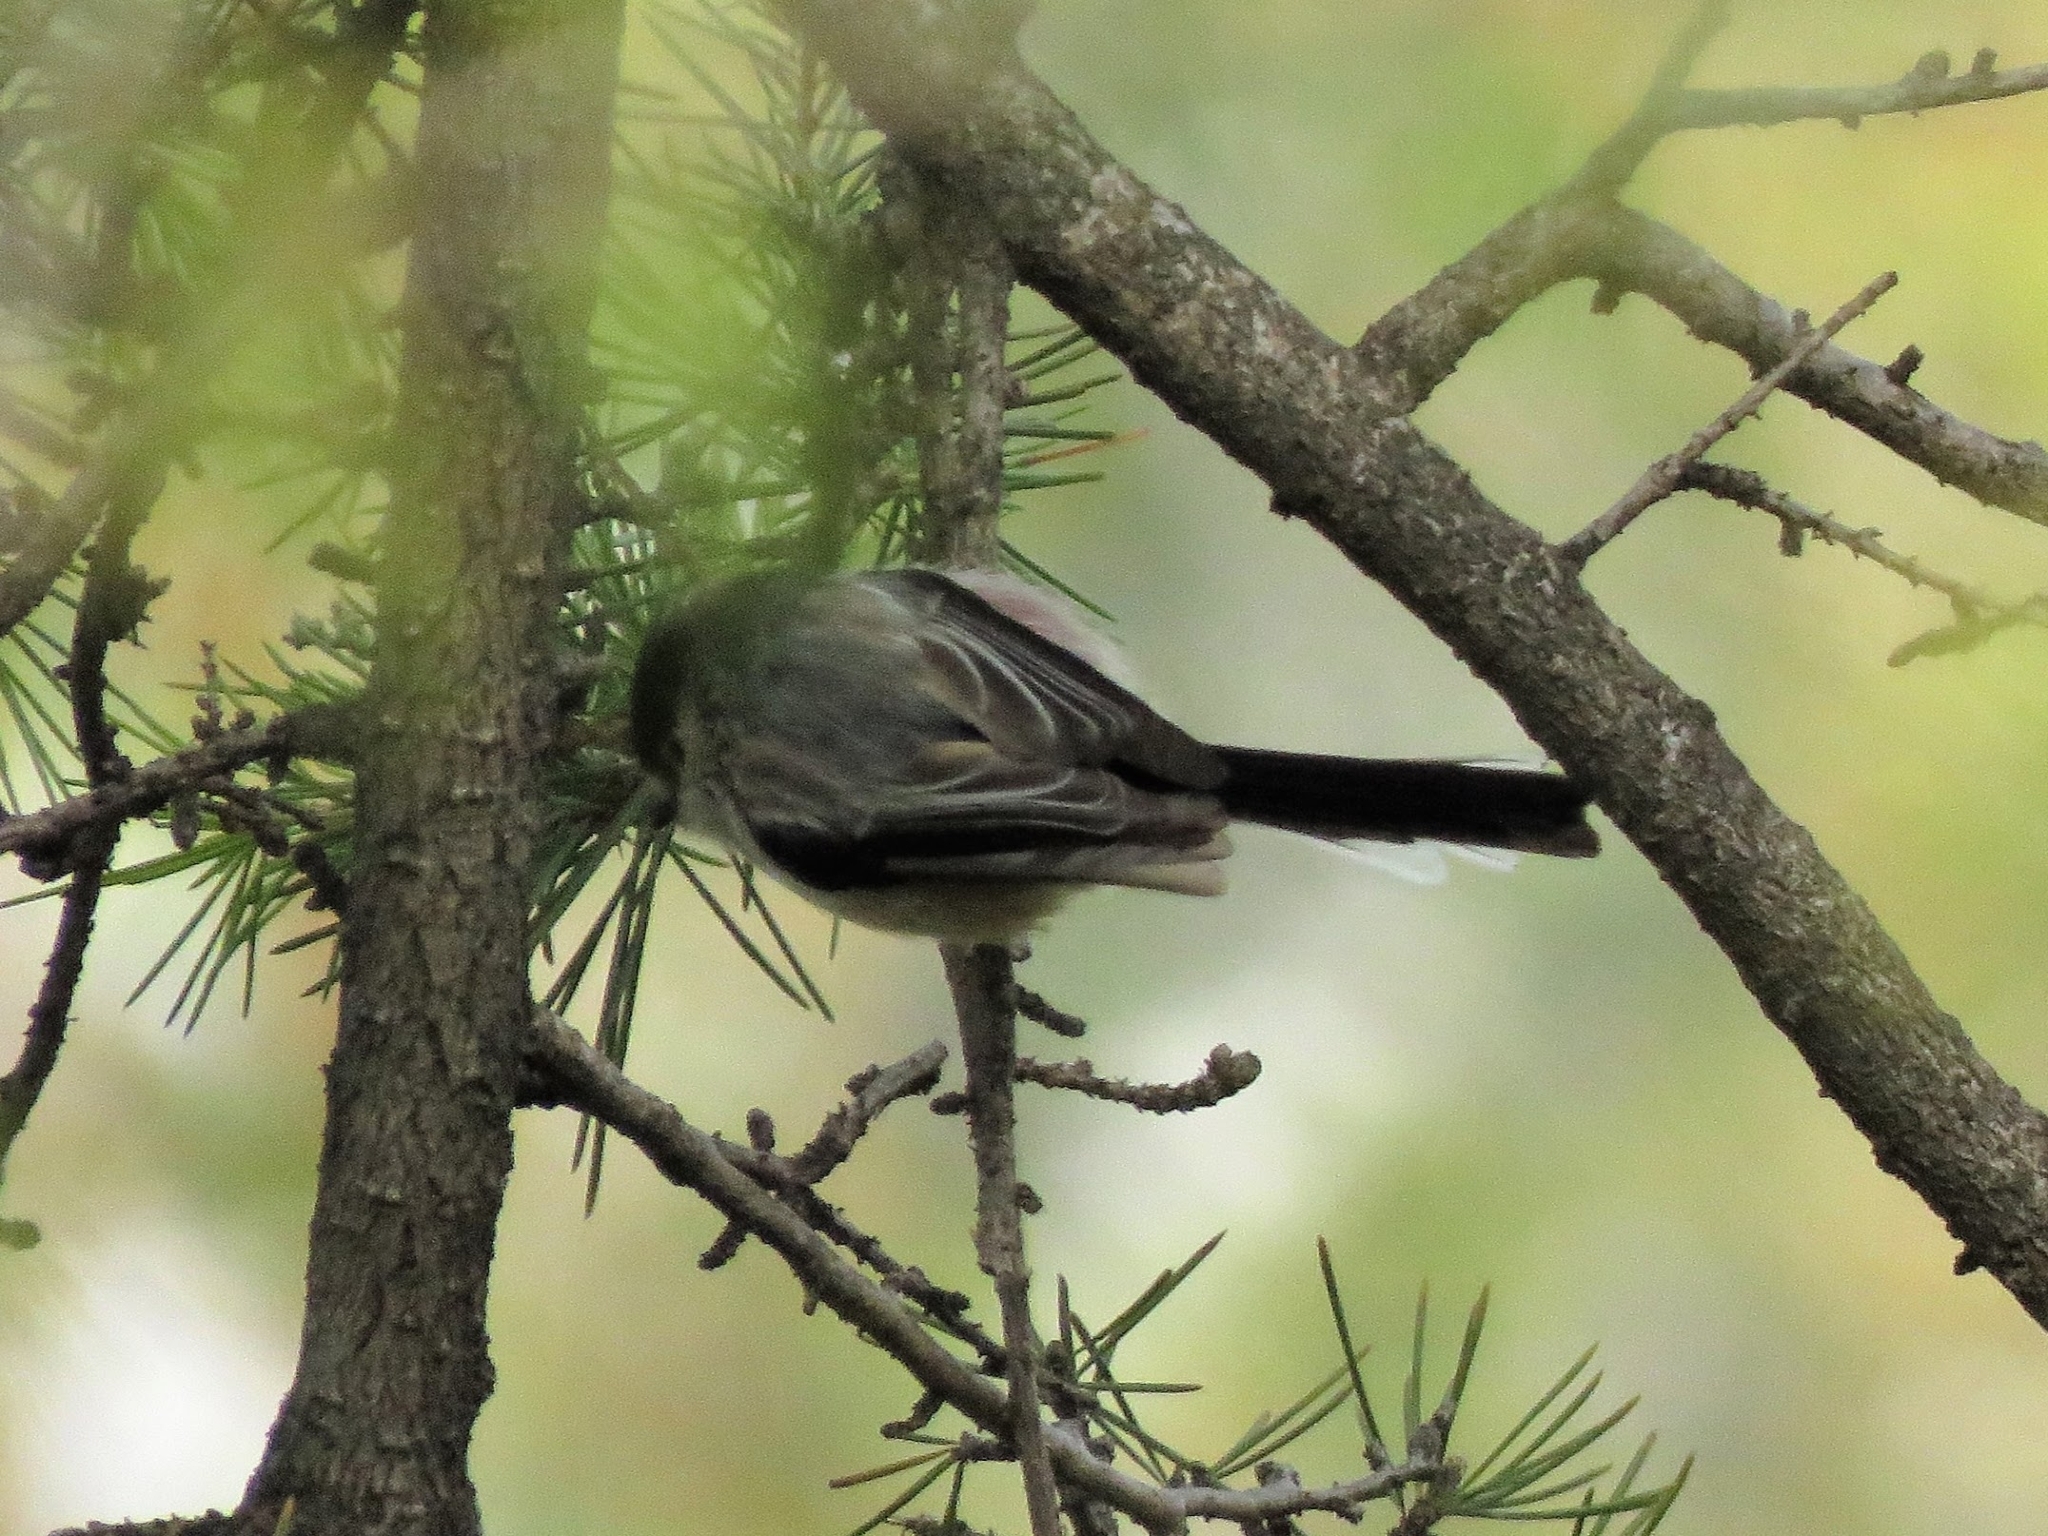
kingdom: Animalia
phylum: Chordata
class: Aves
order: Passeriformes
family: Aegithalidae
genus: Aegithalos
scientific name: Aegithalos caudatus
